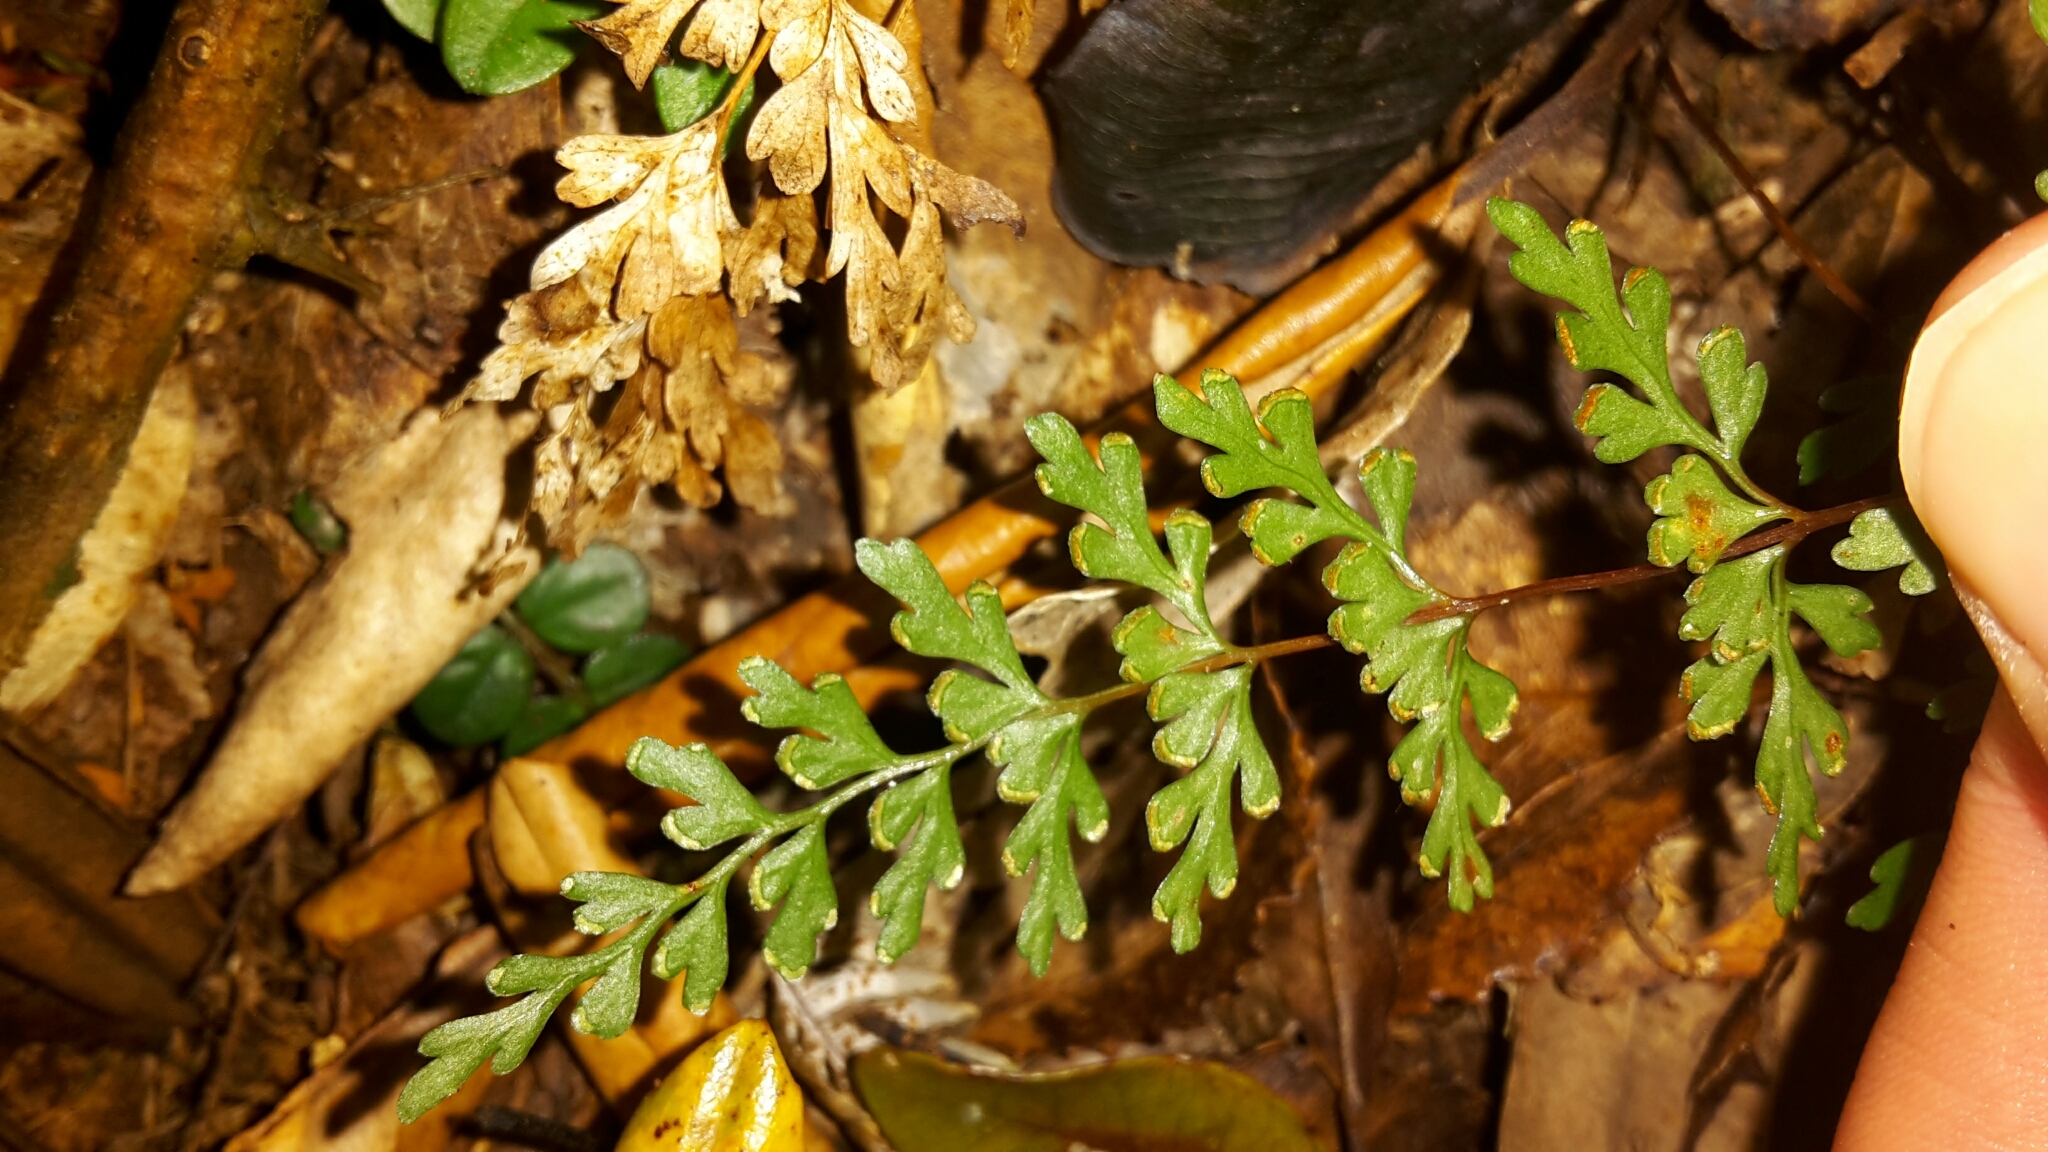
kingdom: Plantae
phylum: Tracheophyta
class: Polypodiopsida
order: Polypodiales
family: Lindsaeaceae
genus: Lindsaea
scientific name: Lindsaea trichomanoides
